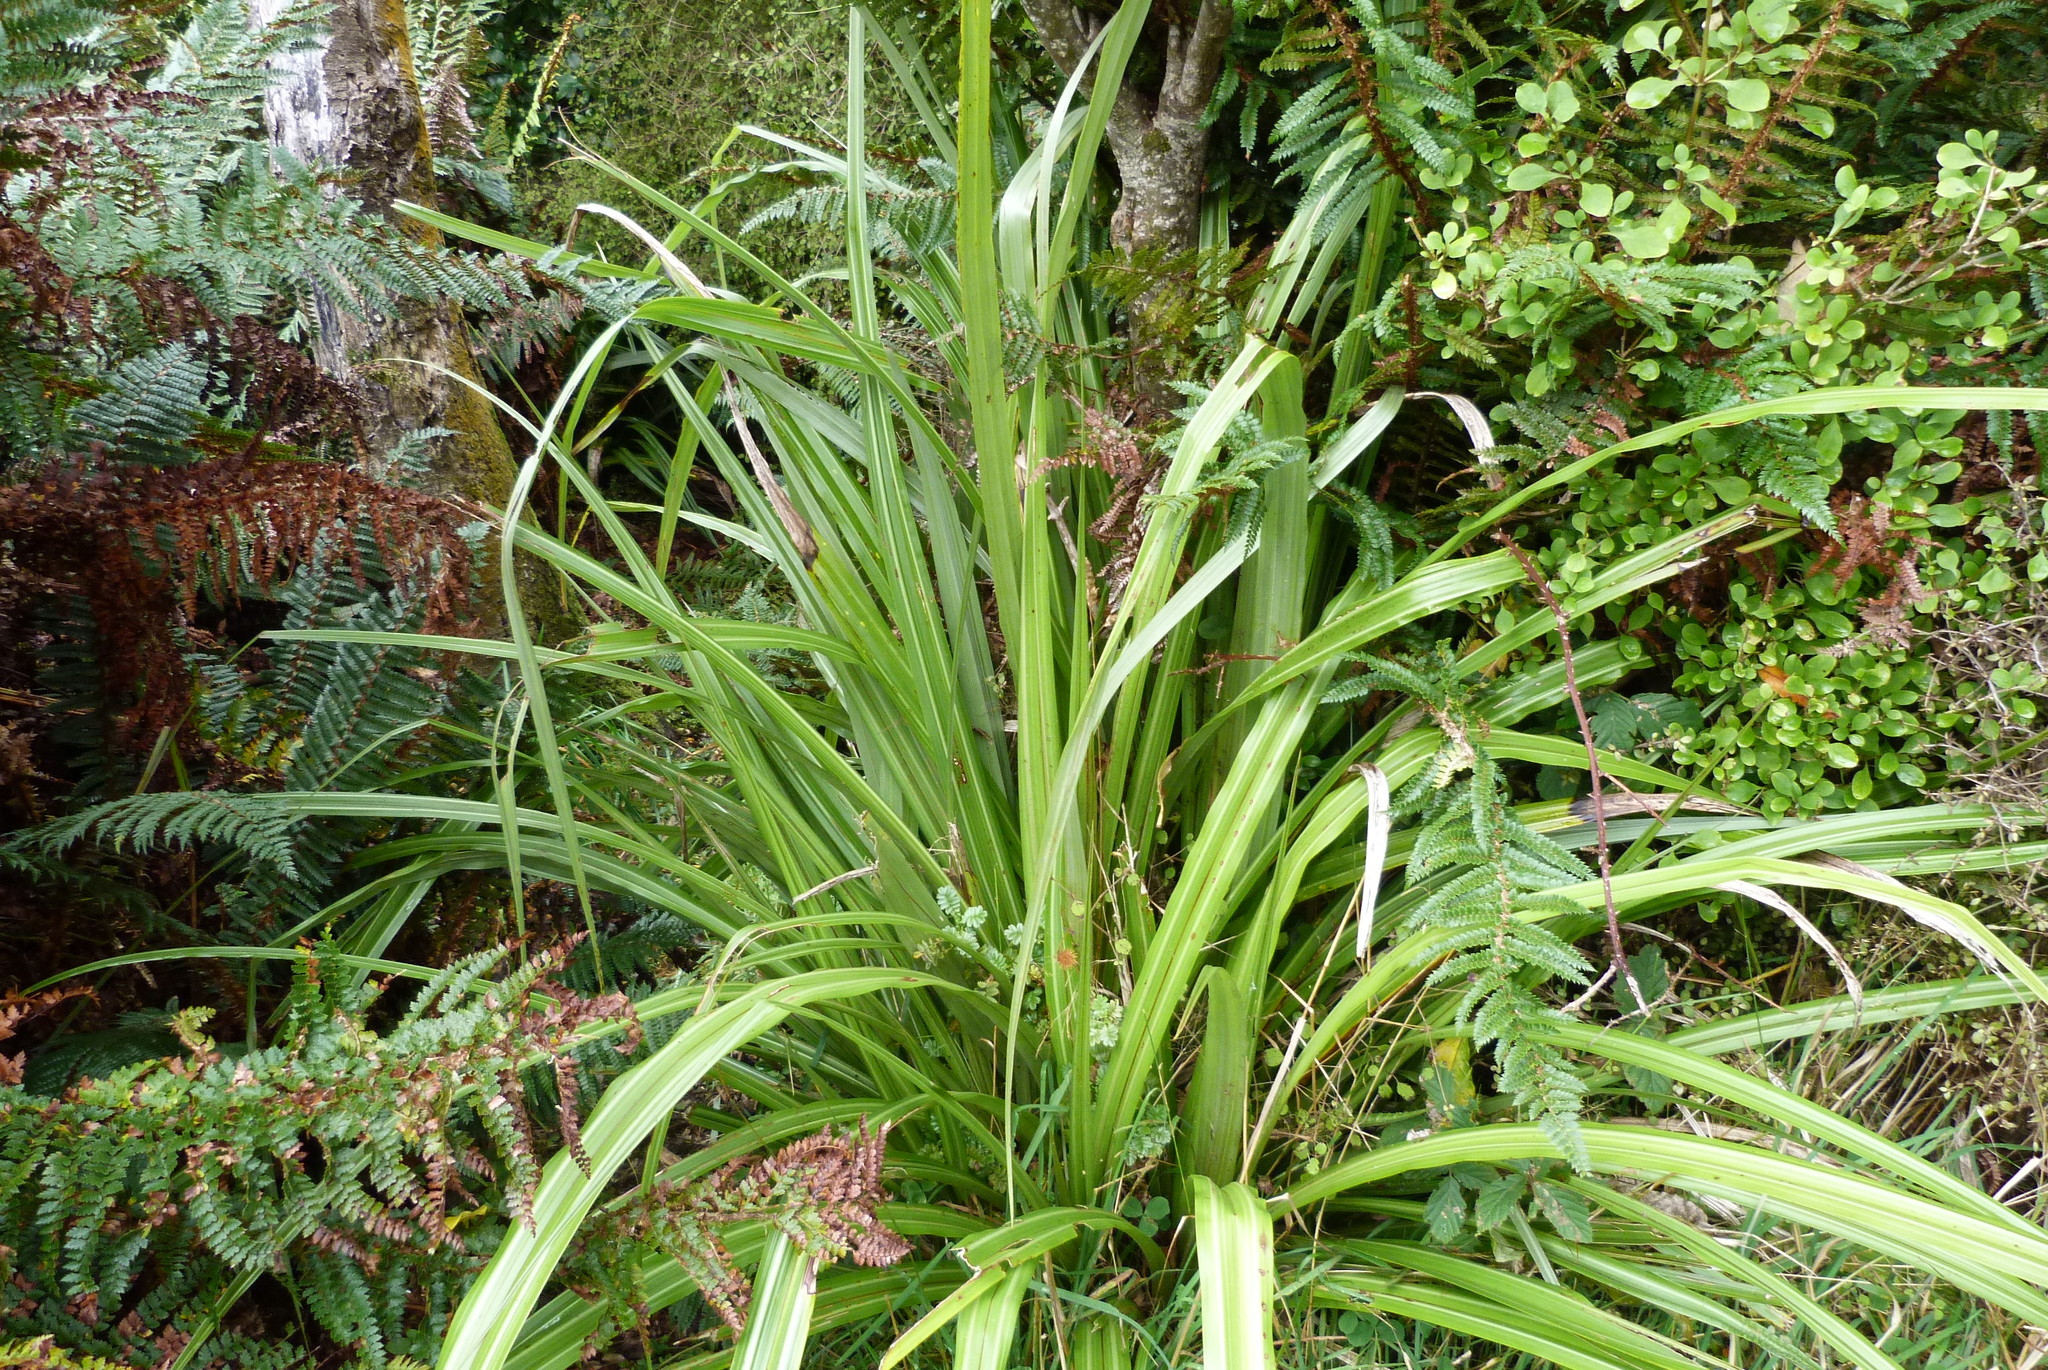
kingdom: Plantae
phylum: Tracheophyta
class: Liliopsida
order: Asparagales
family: Asteliaceae
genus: Astelia
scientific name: Astelia fragrans
